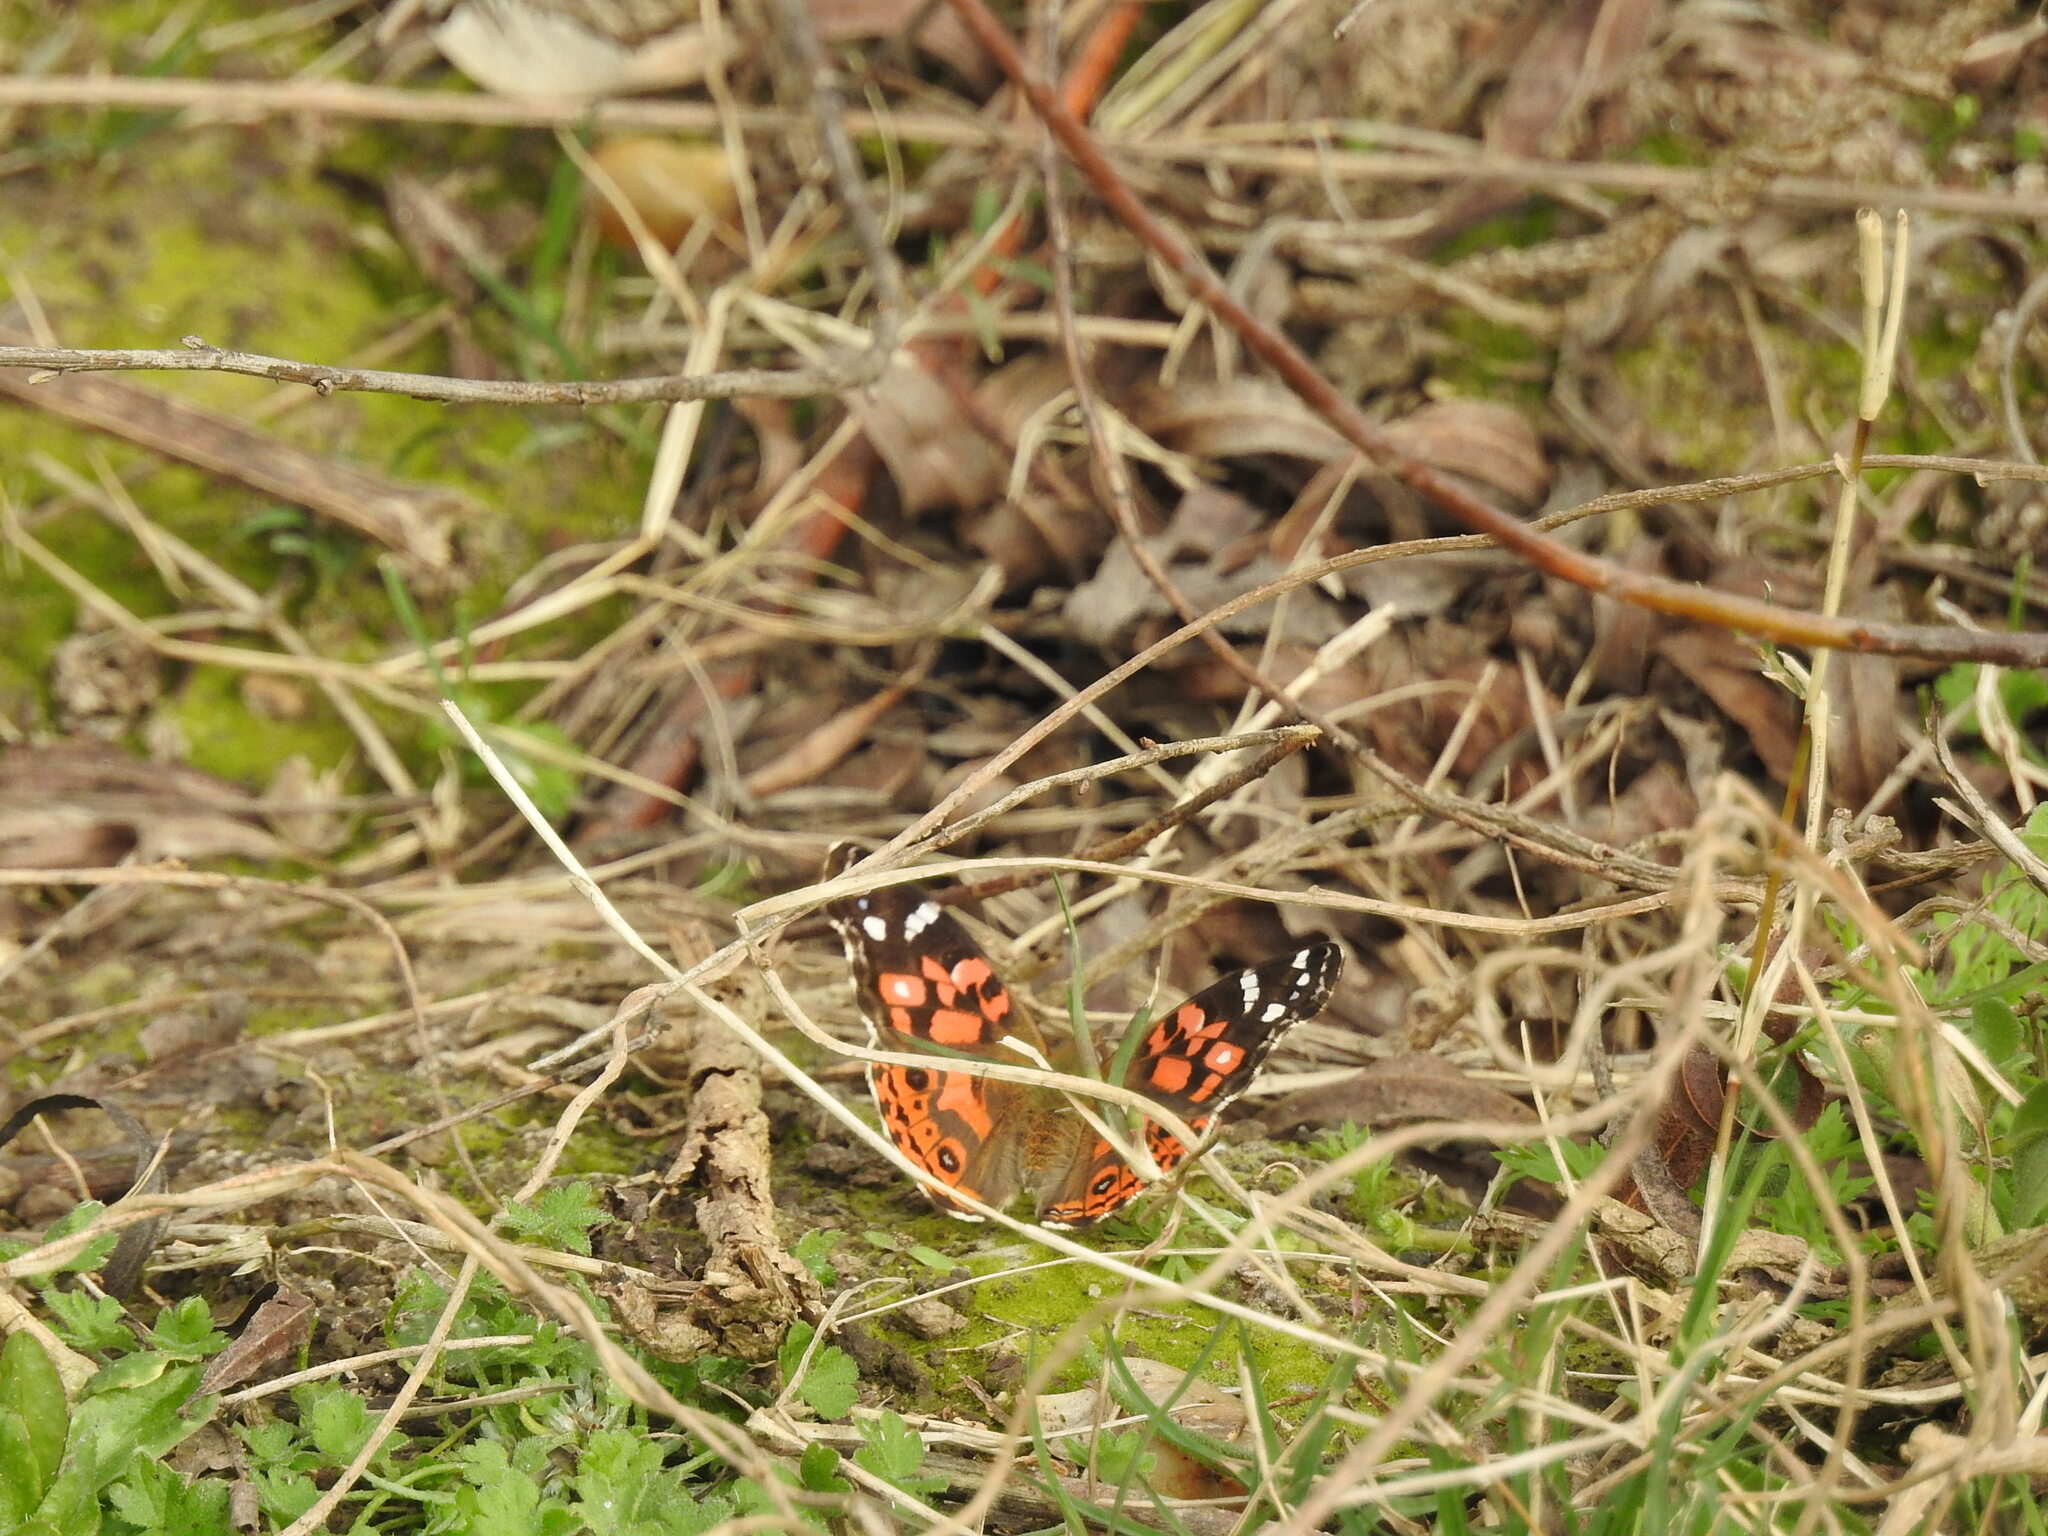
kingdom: Animalia
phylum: Arthropoda
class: Insecta
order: Lepidoptera
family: Nymphalidae
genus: Vanessa
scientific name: Vanessa braziliensis
